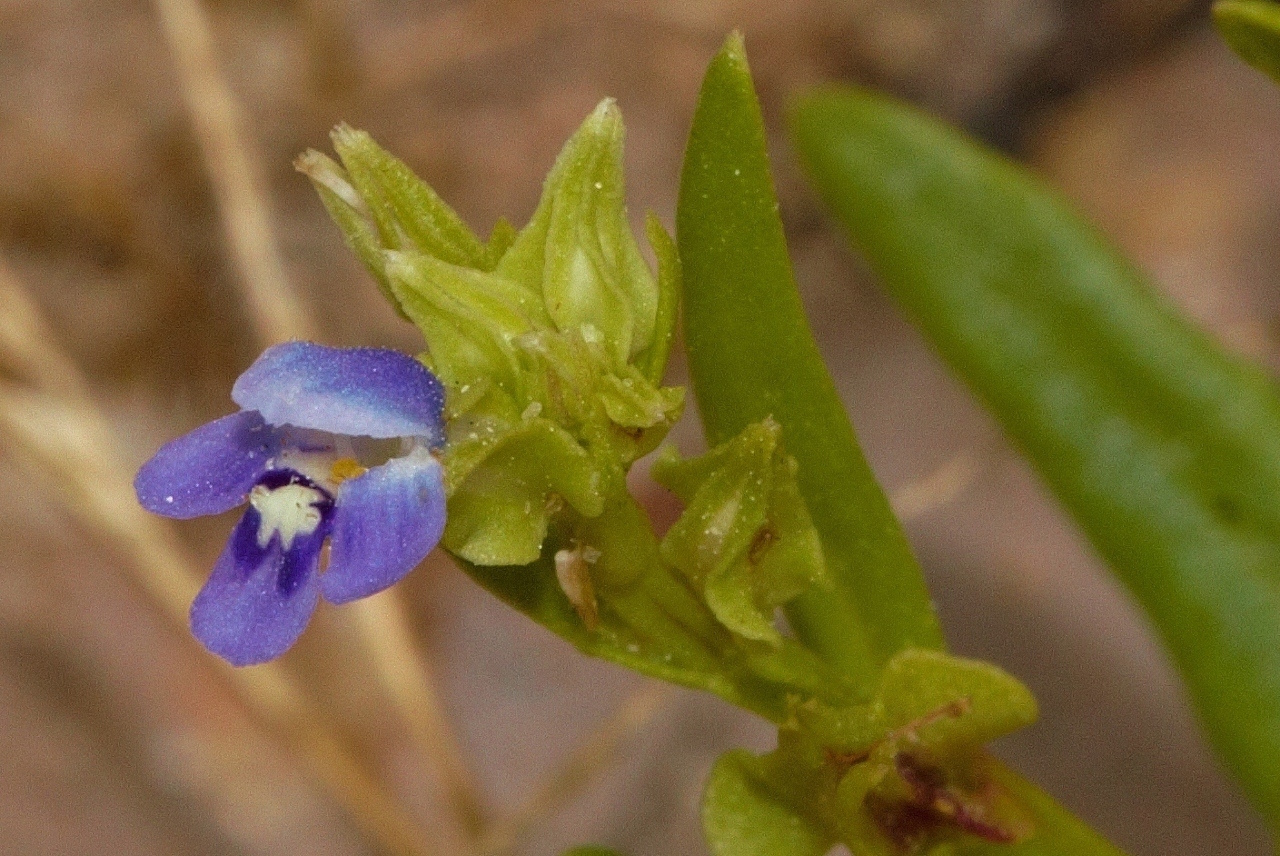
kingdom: Plantae
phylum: Tracheophyta
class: Magnoliopsida
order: Lamiales
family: Linderniaceae
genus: Crepidorhopalon
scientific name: Crepidorhopalon spicatus
